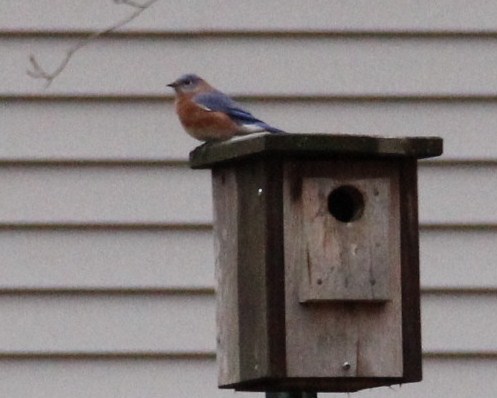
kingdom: Animalia
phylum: Chordata
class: Aves
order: Passeriformes
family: Turdidae
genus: Sialia
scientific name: Sialia sialis
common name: Eastern bluebird
